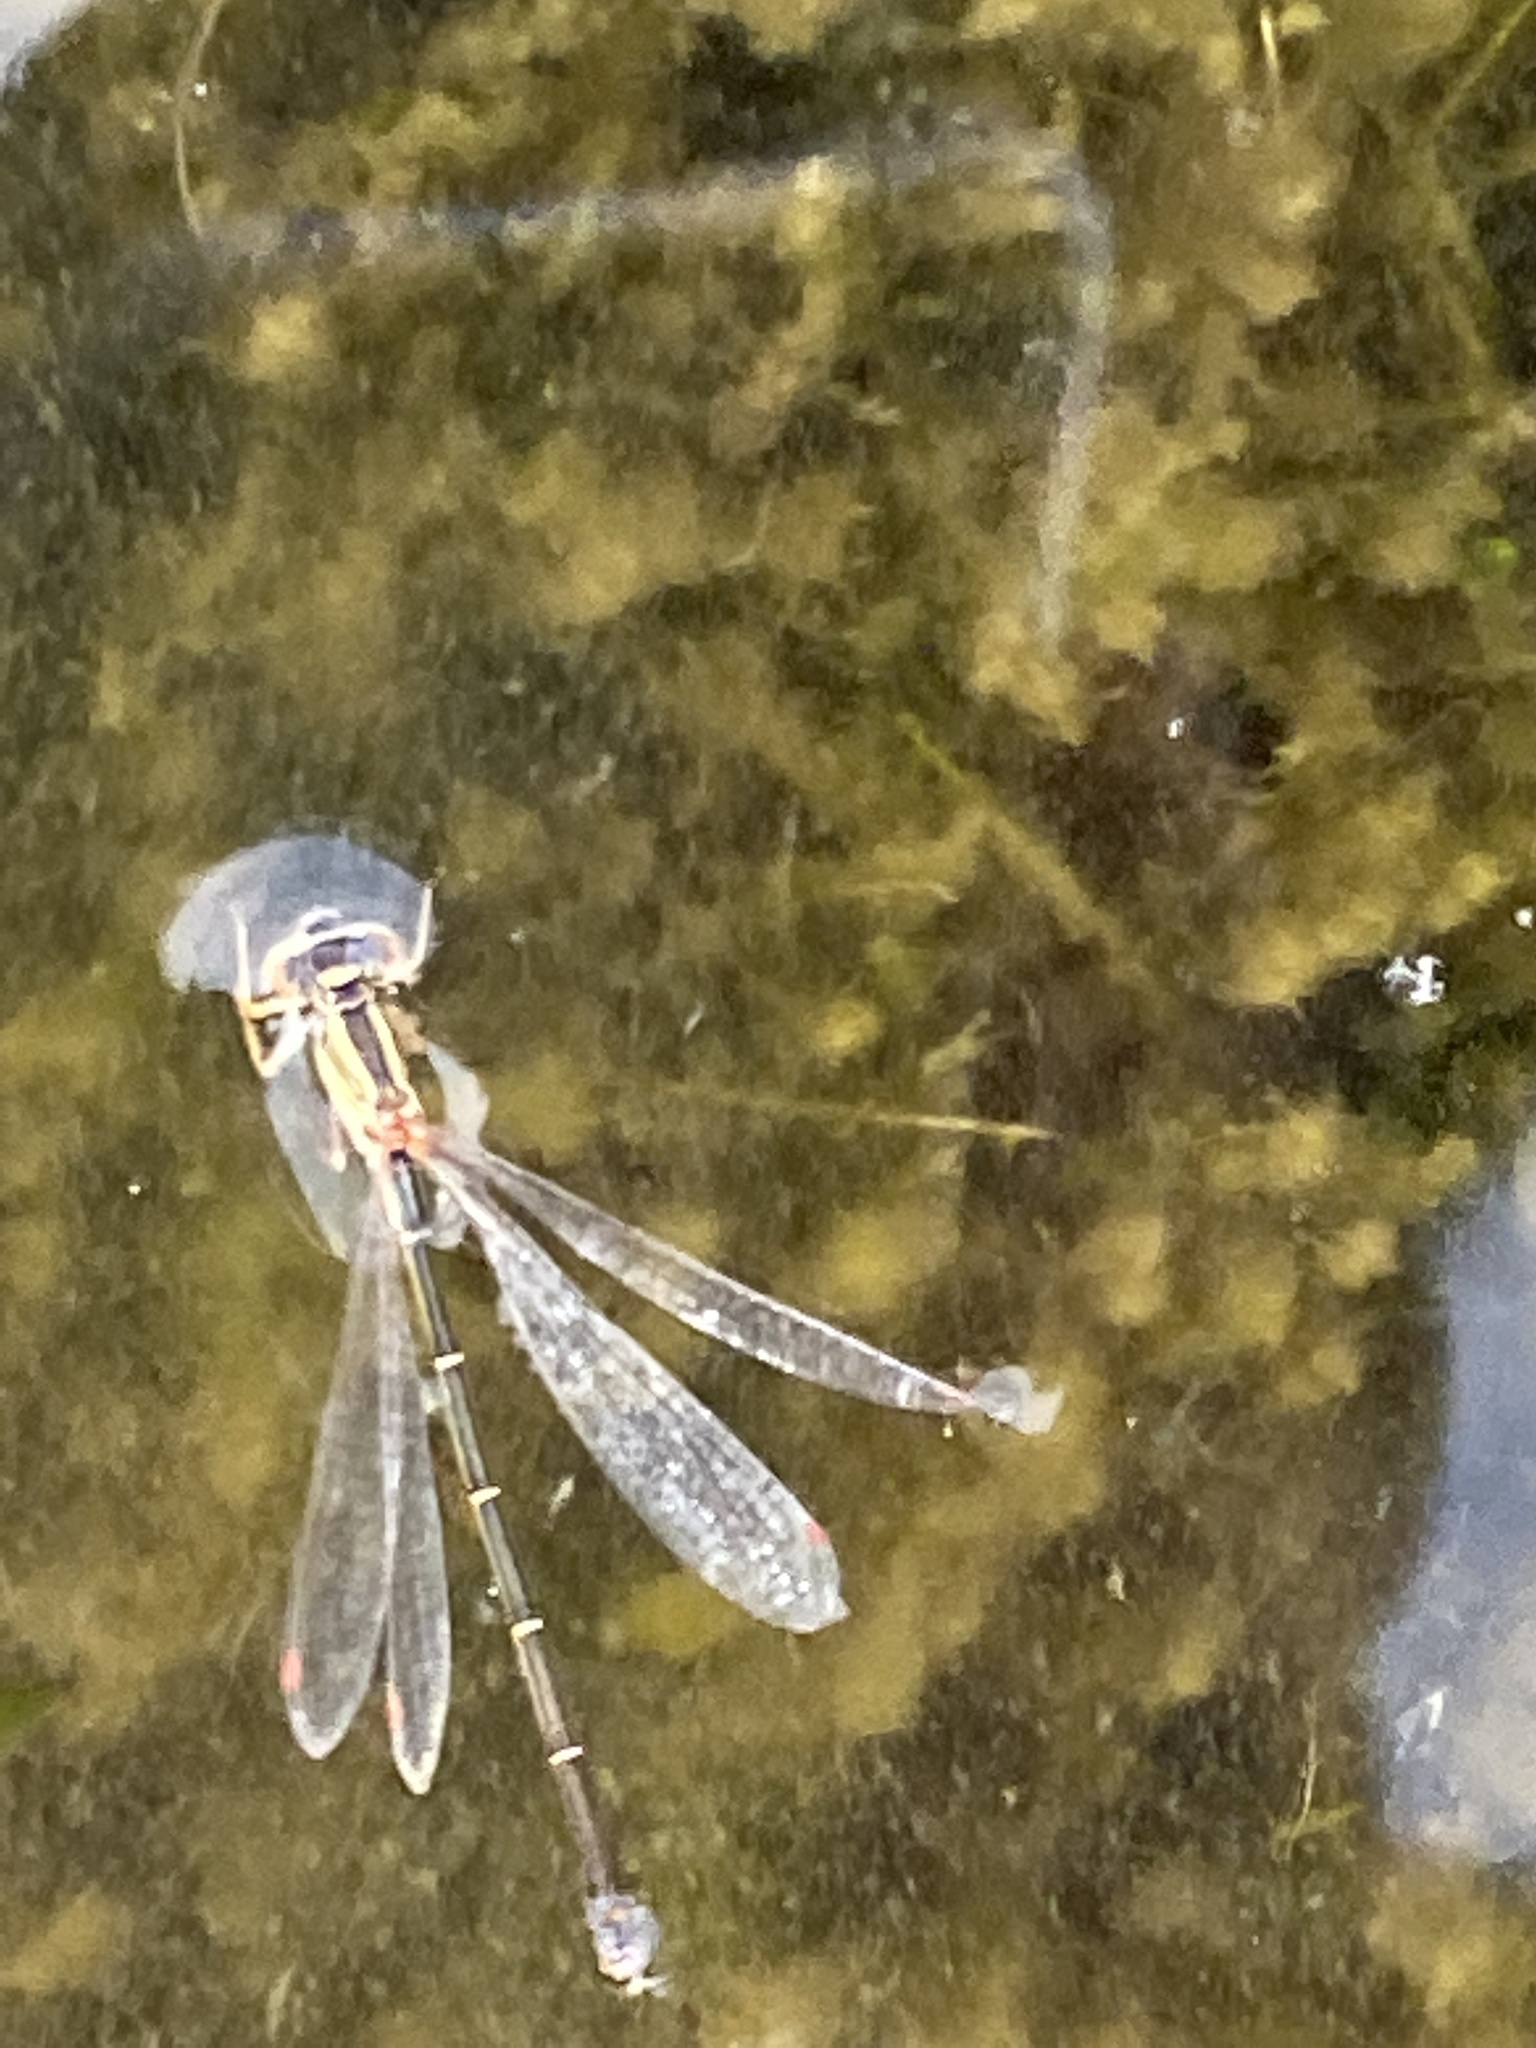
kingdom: Animalia
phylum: Arthropoda
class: Insecta
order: Odonata
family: Coenagrionidae
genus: Xanthocnemis
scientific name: Xanthocnemis zealandica
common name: Common redcoat damselfly
